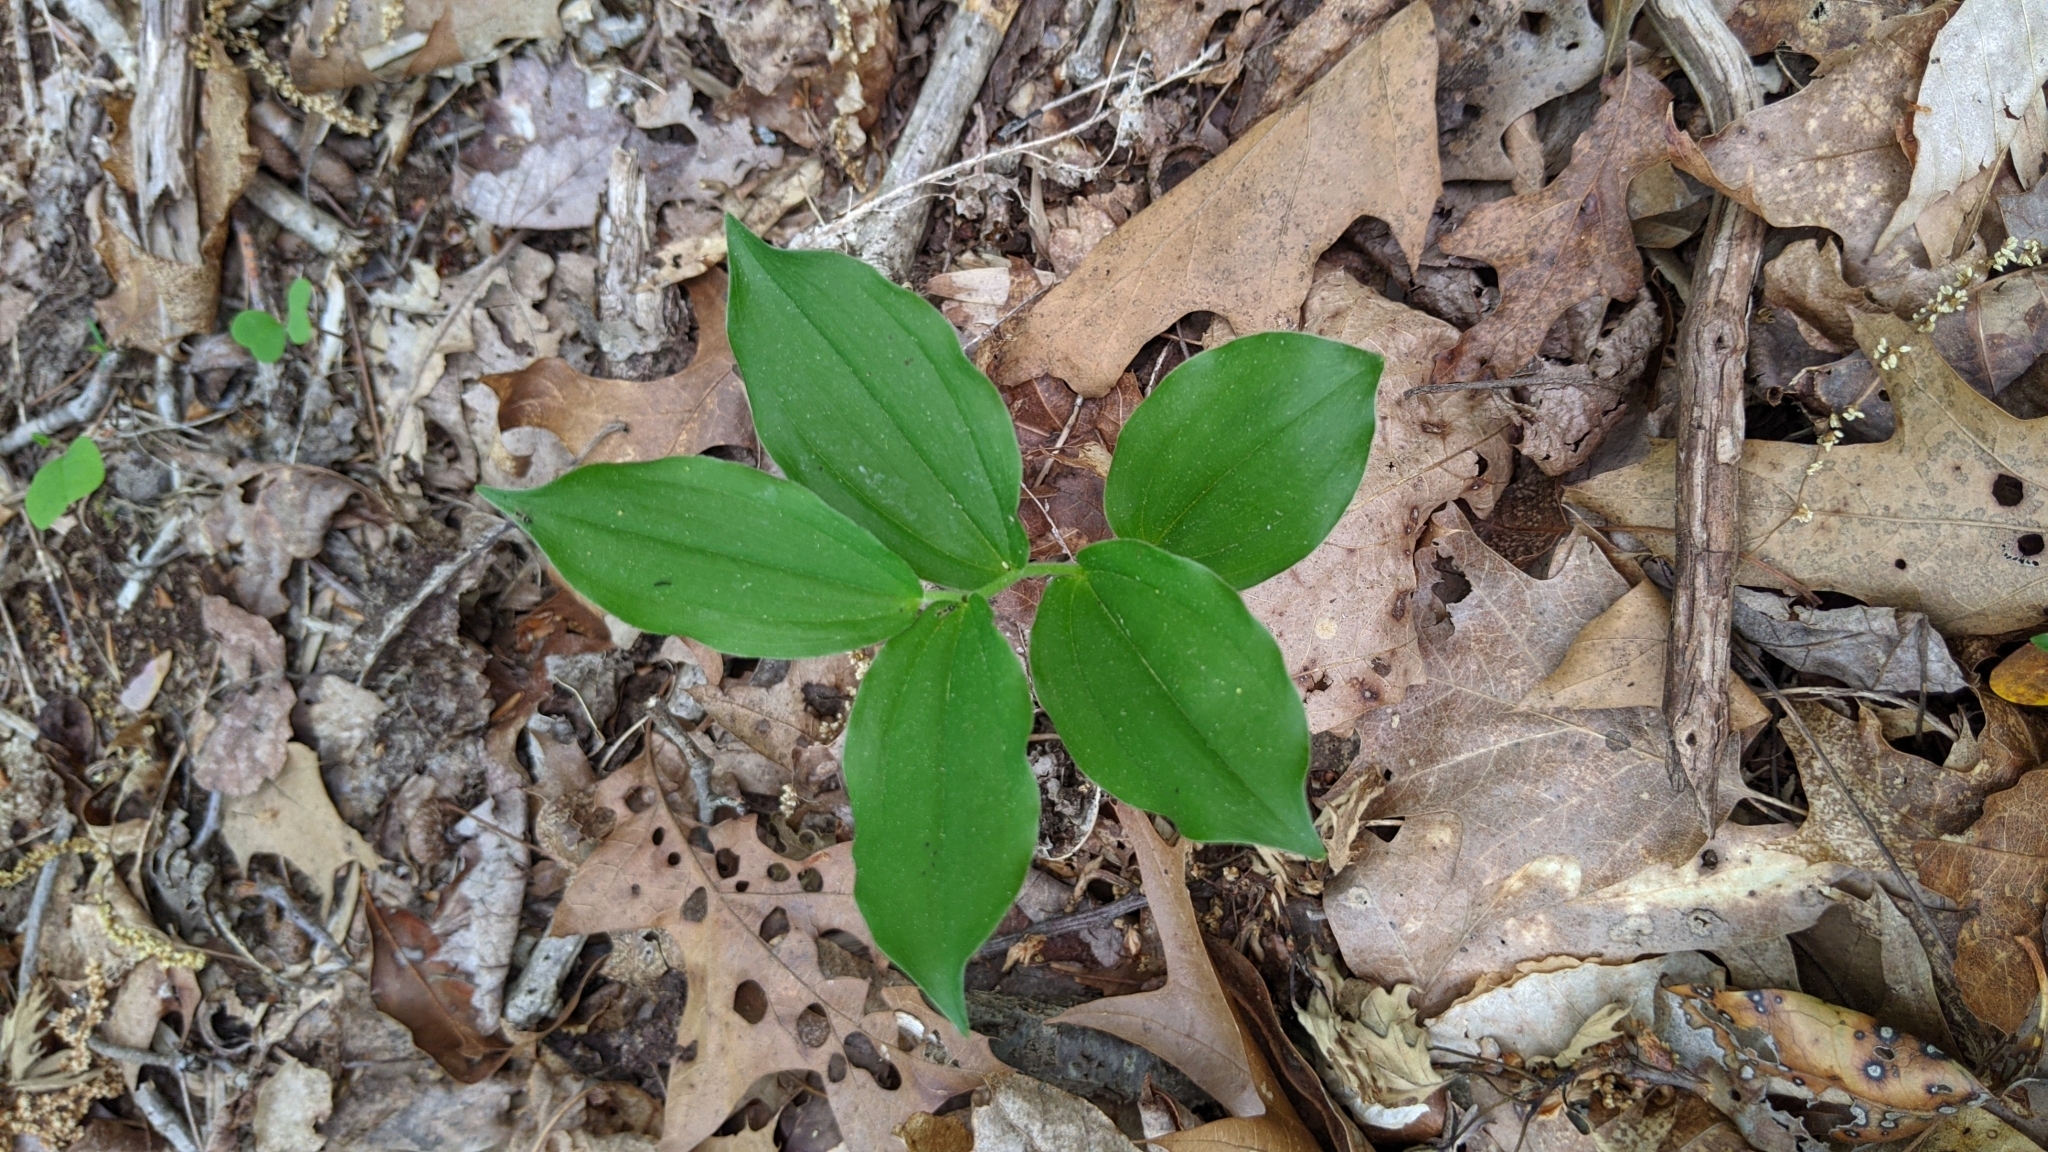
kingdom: Plantae
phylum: Tracheophyta
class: Liliopsida
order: Asparagales
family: Asparagaceae
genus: Maianthemum
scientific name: Maianthemum racemosum
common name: False spikenard
